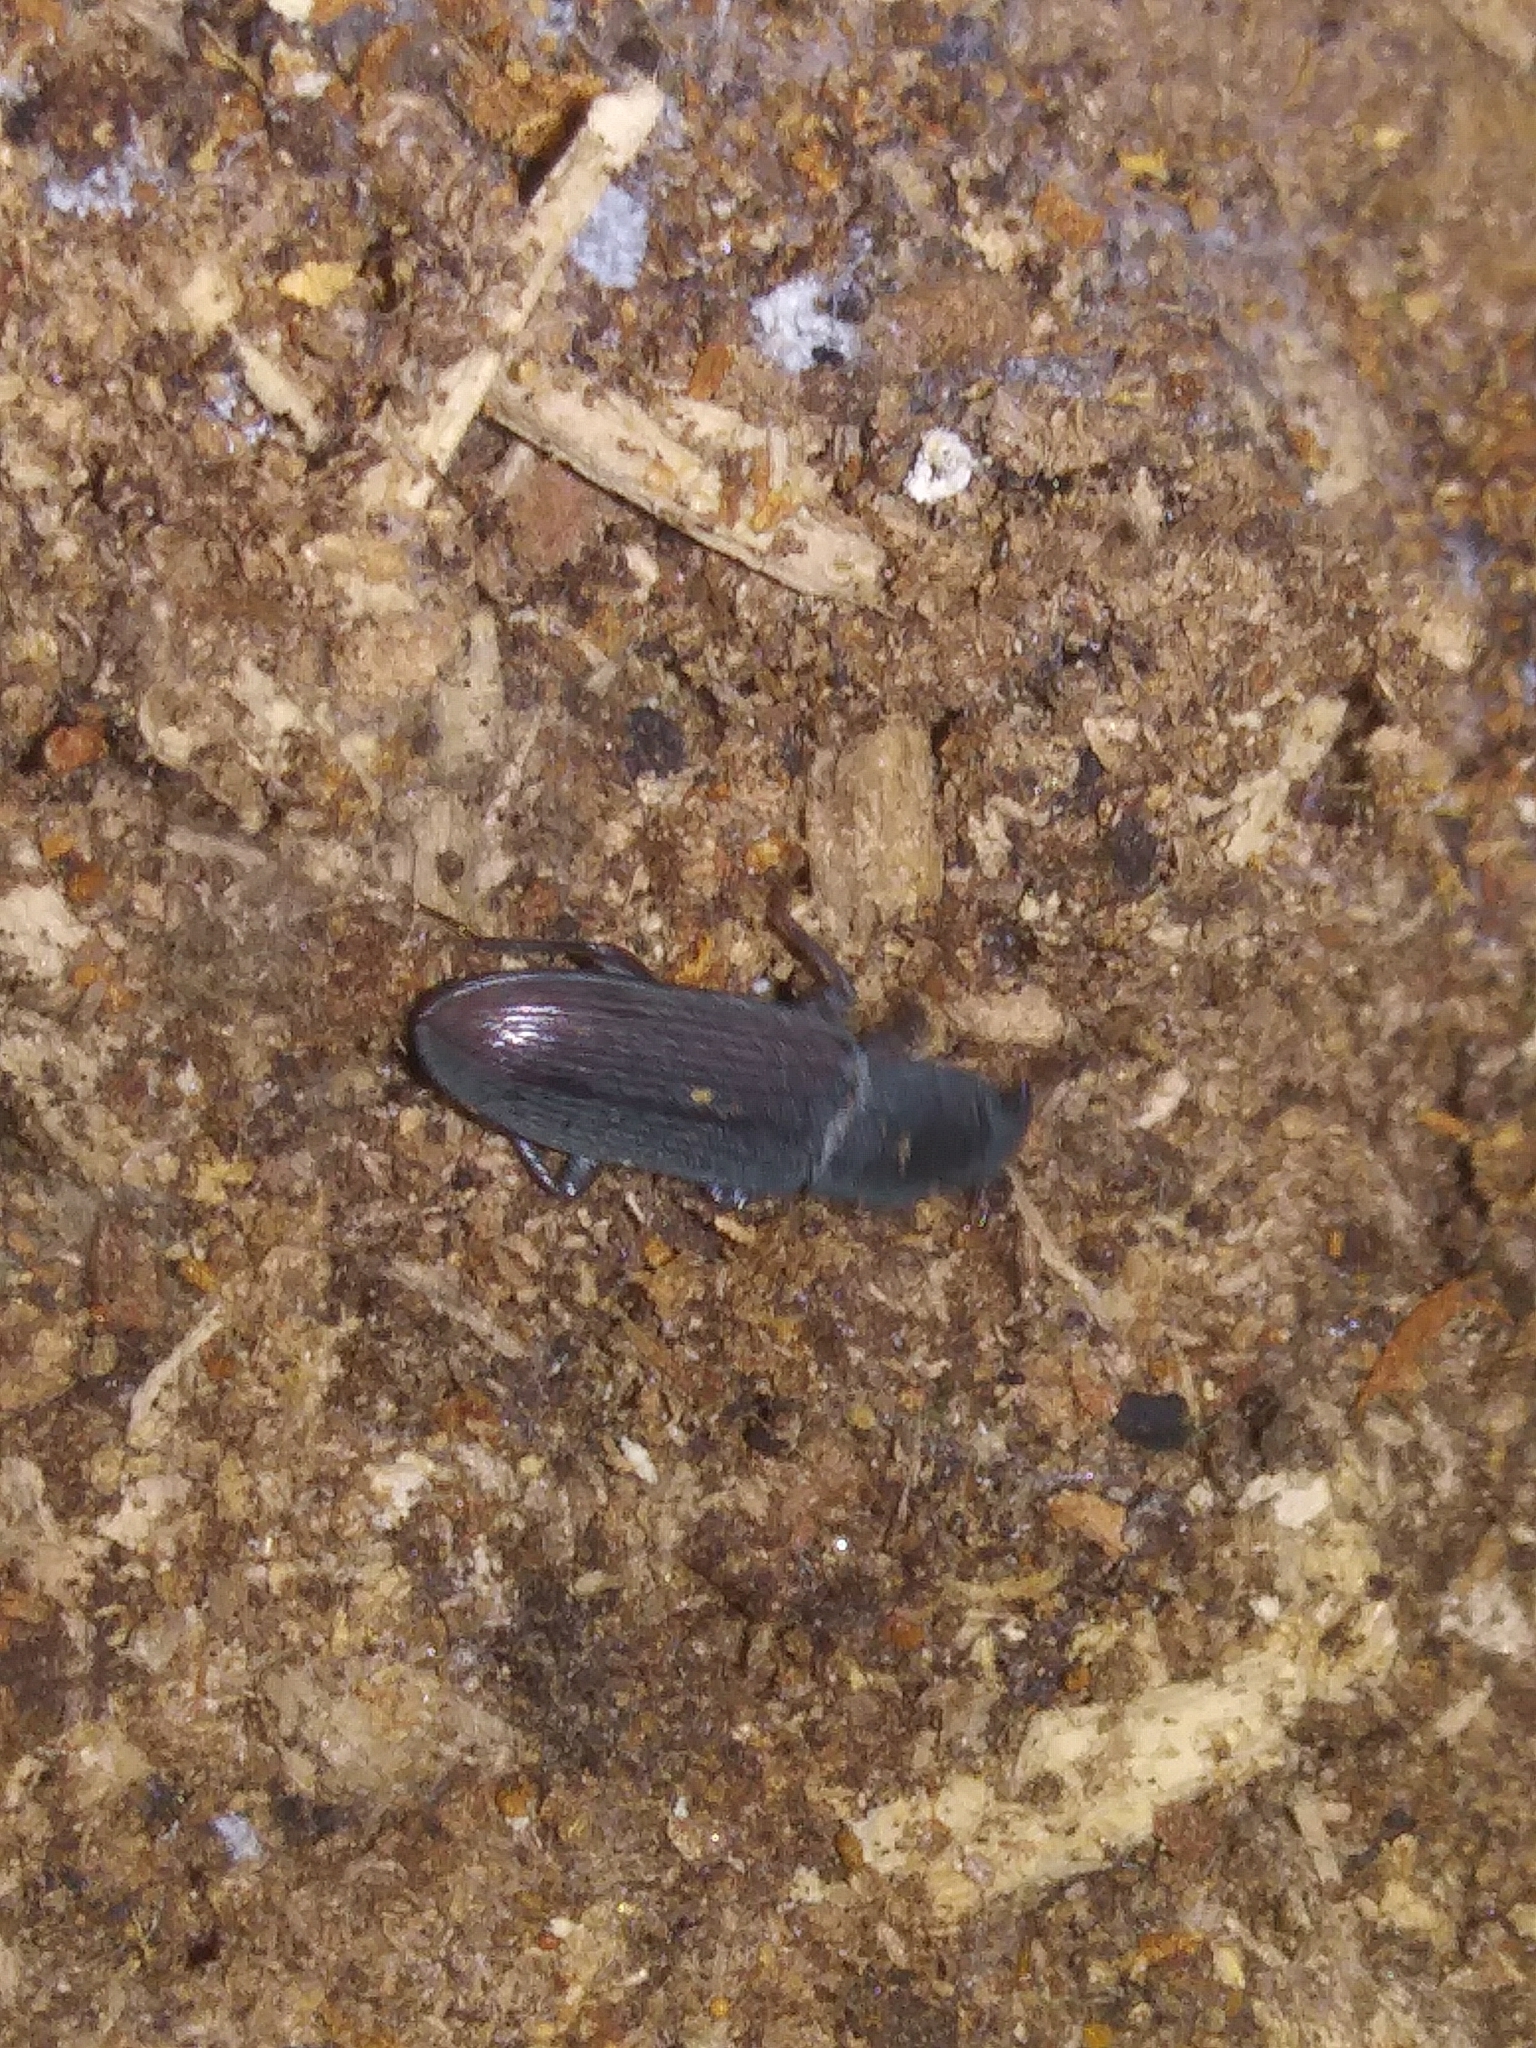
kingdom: Animalia
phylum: Arthropoda
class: Insecta
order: Coleoptera
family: Tenebrionidae
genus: Idiobates
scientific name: Idiobates castaneus
